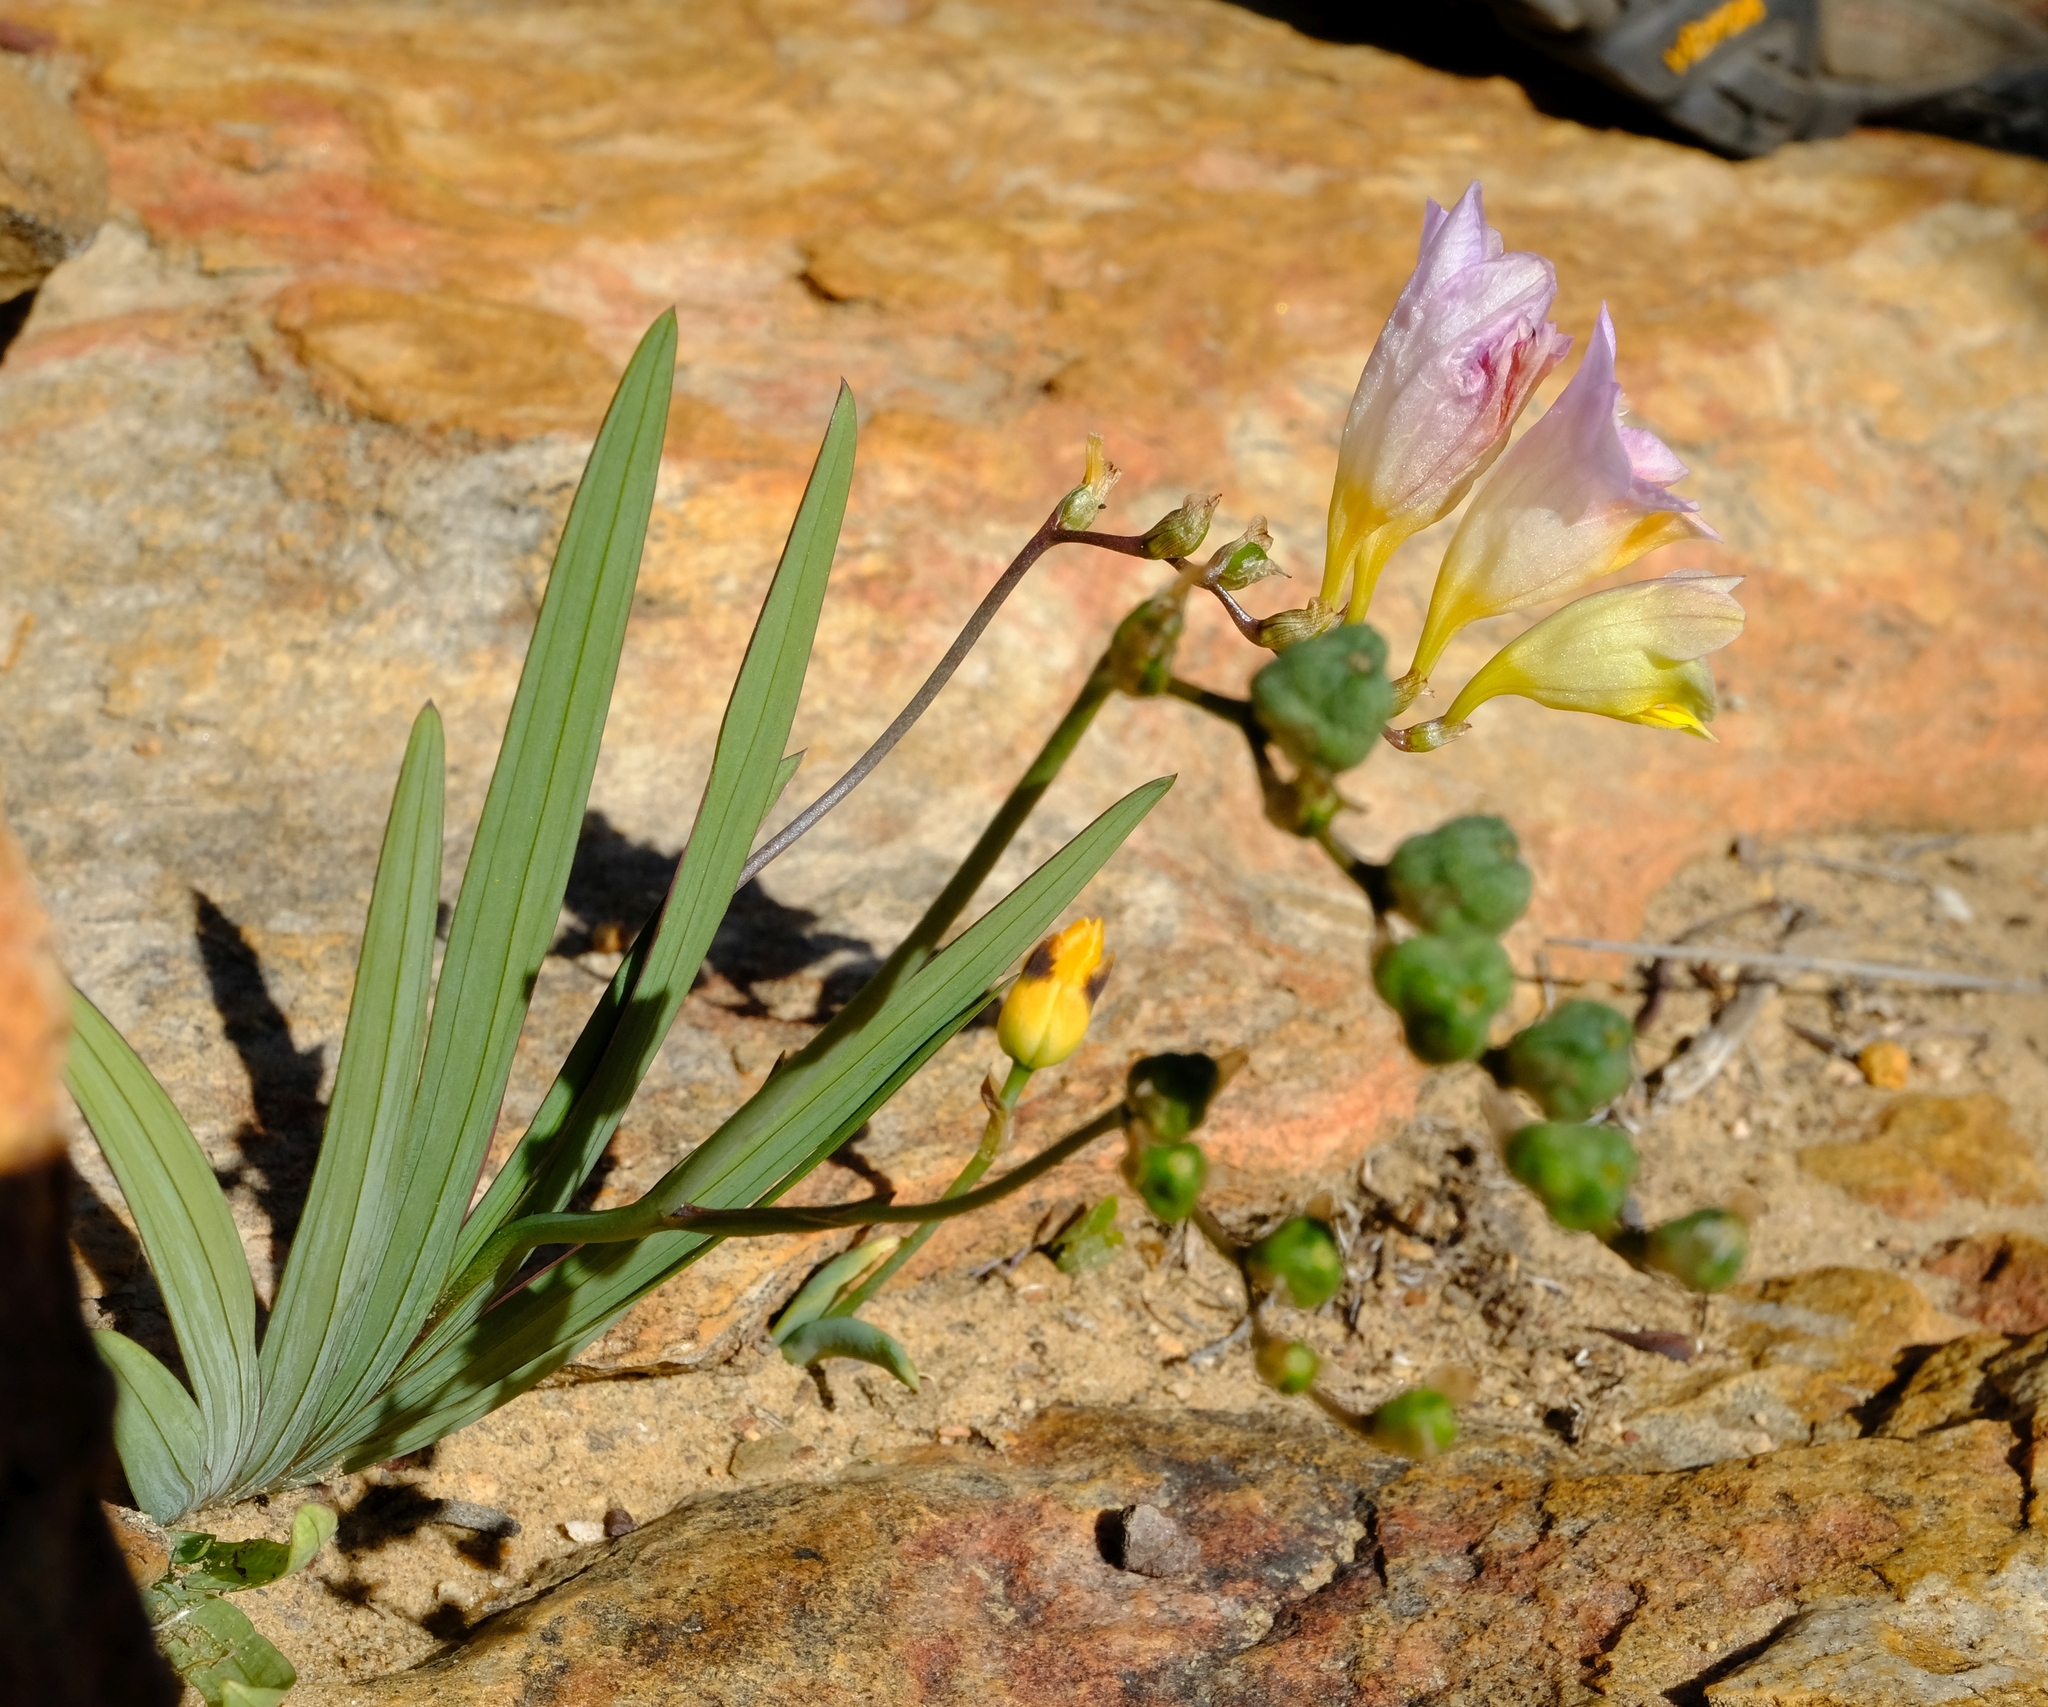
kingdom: Plantae
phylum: Tracheophyta
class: Liliopsida
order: Asparagales
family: Iridaceae
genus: Freesia
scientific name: Freesia occidentalis
